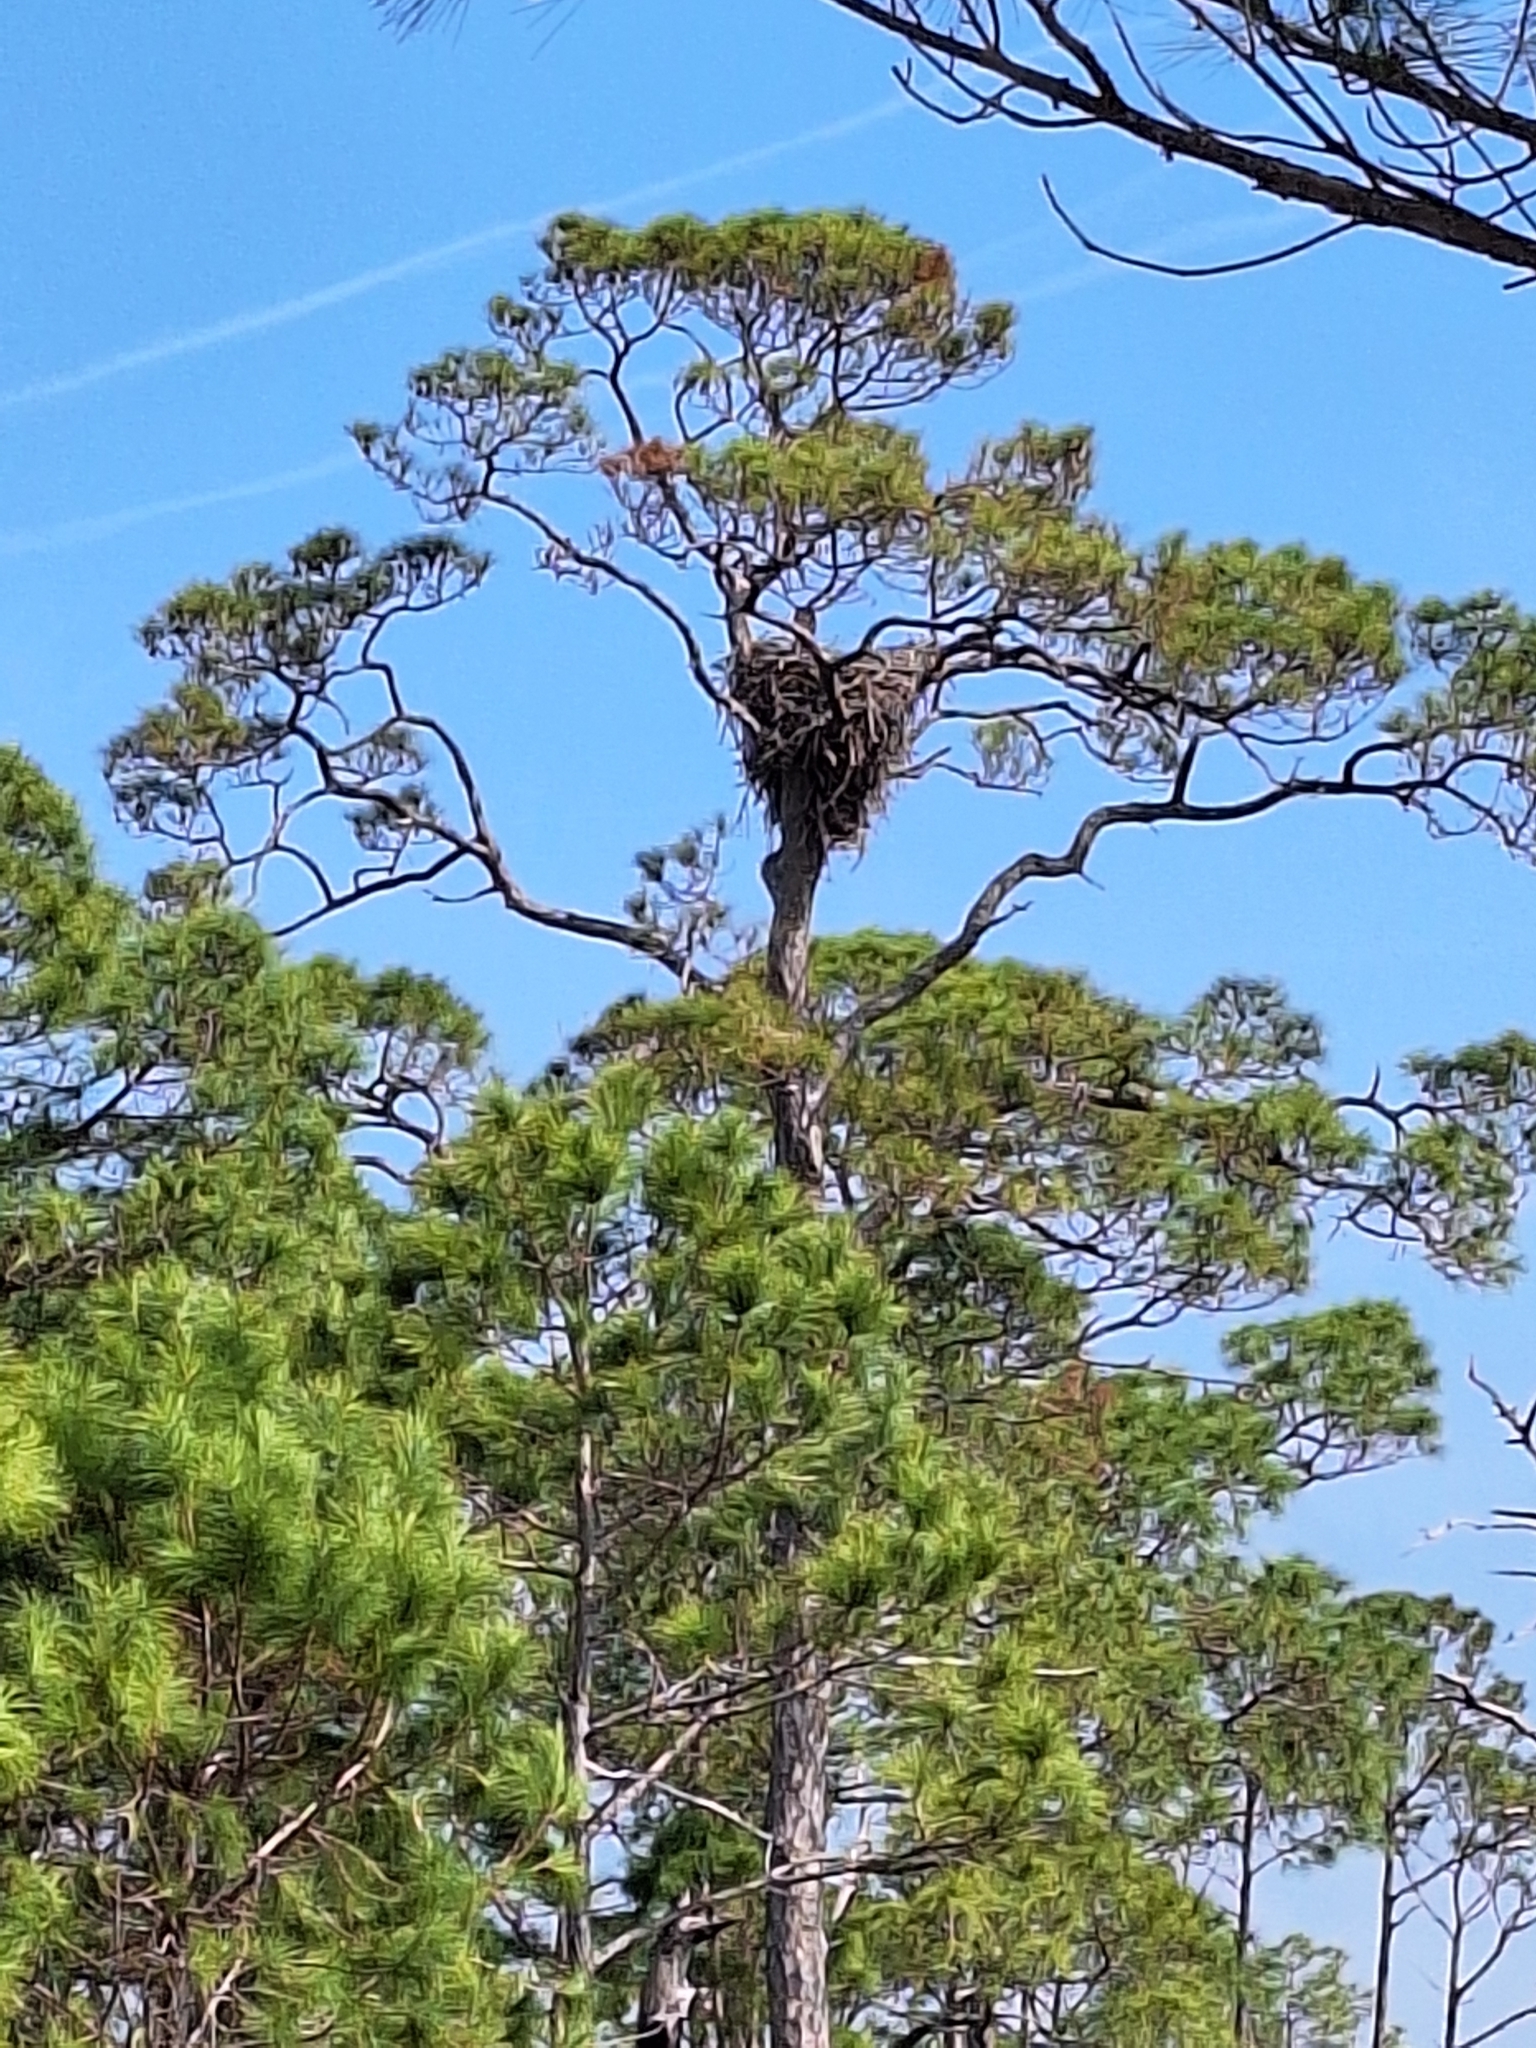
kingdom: Animalia
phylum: Chordata
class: Aves
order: Accipitriformes
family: Accipitridae
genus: Haliaeetus
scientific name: Haliaeetus leucocephalus
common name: Bald eagle
